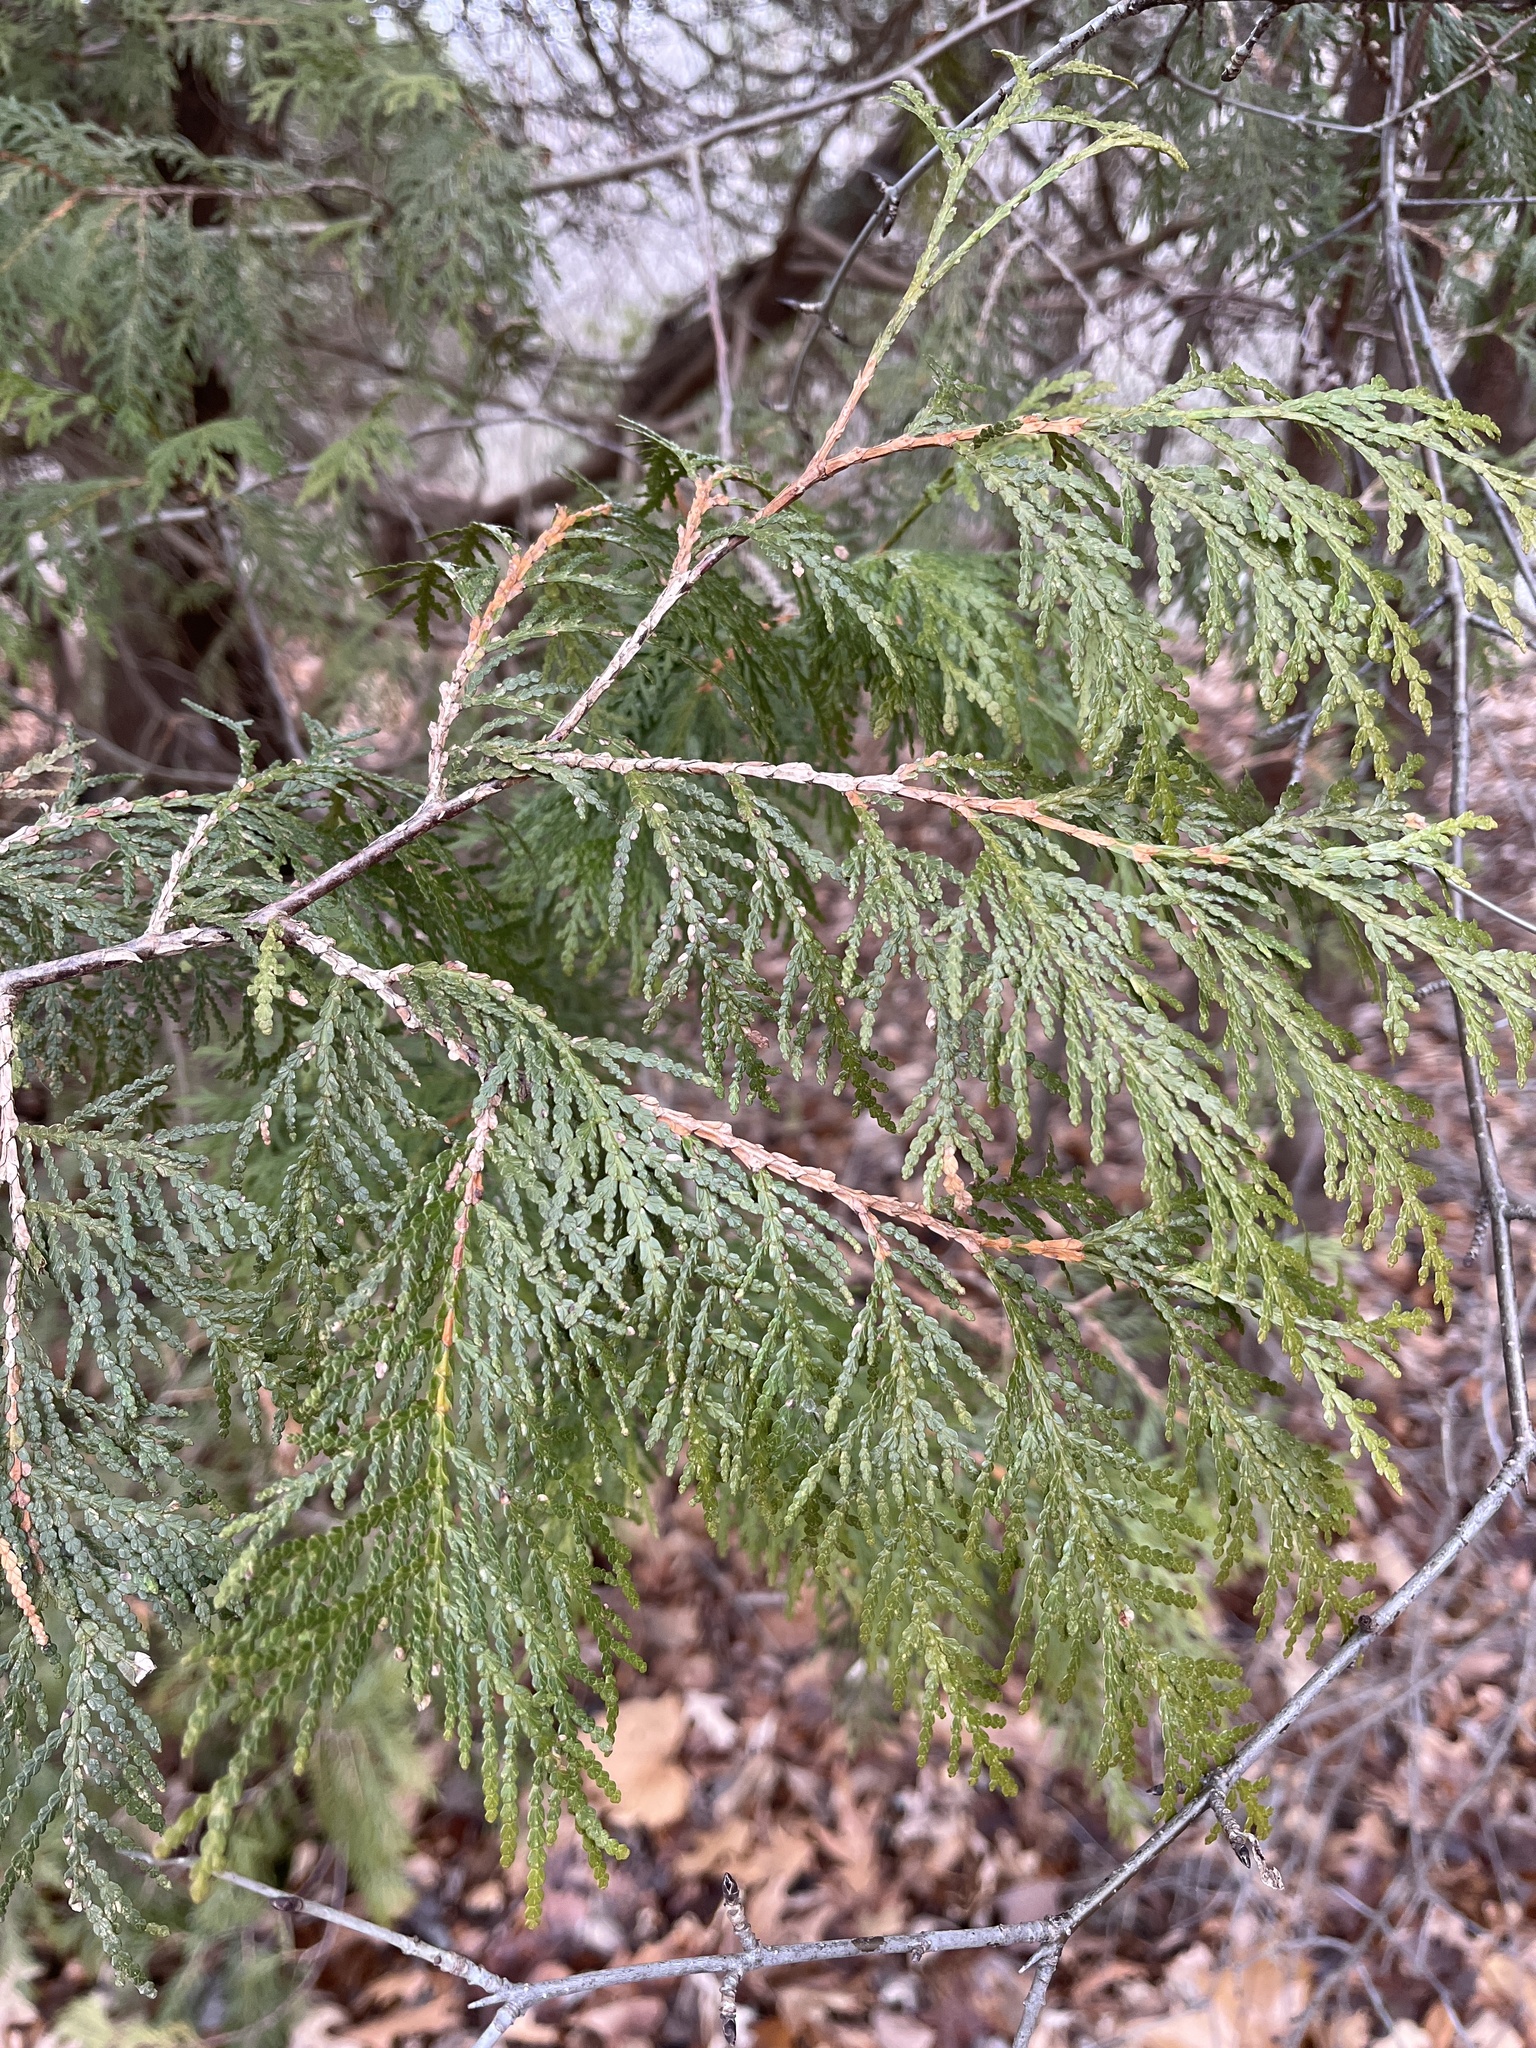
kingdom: Plantae
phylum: Tracheophyta
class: Pinopsida
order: Pinales
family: Cupressaceae
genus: Thuja
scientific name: Thuja occidentalis
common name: Northern white-cedar
